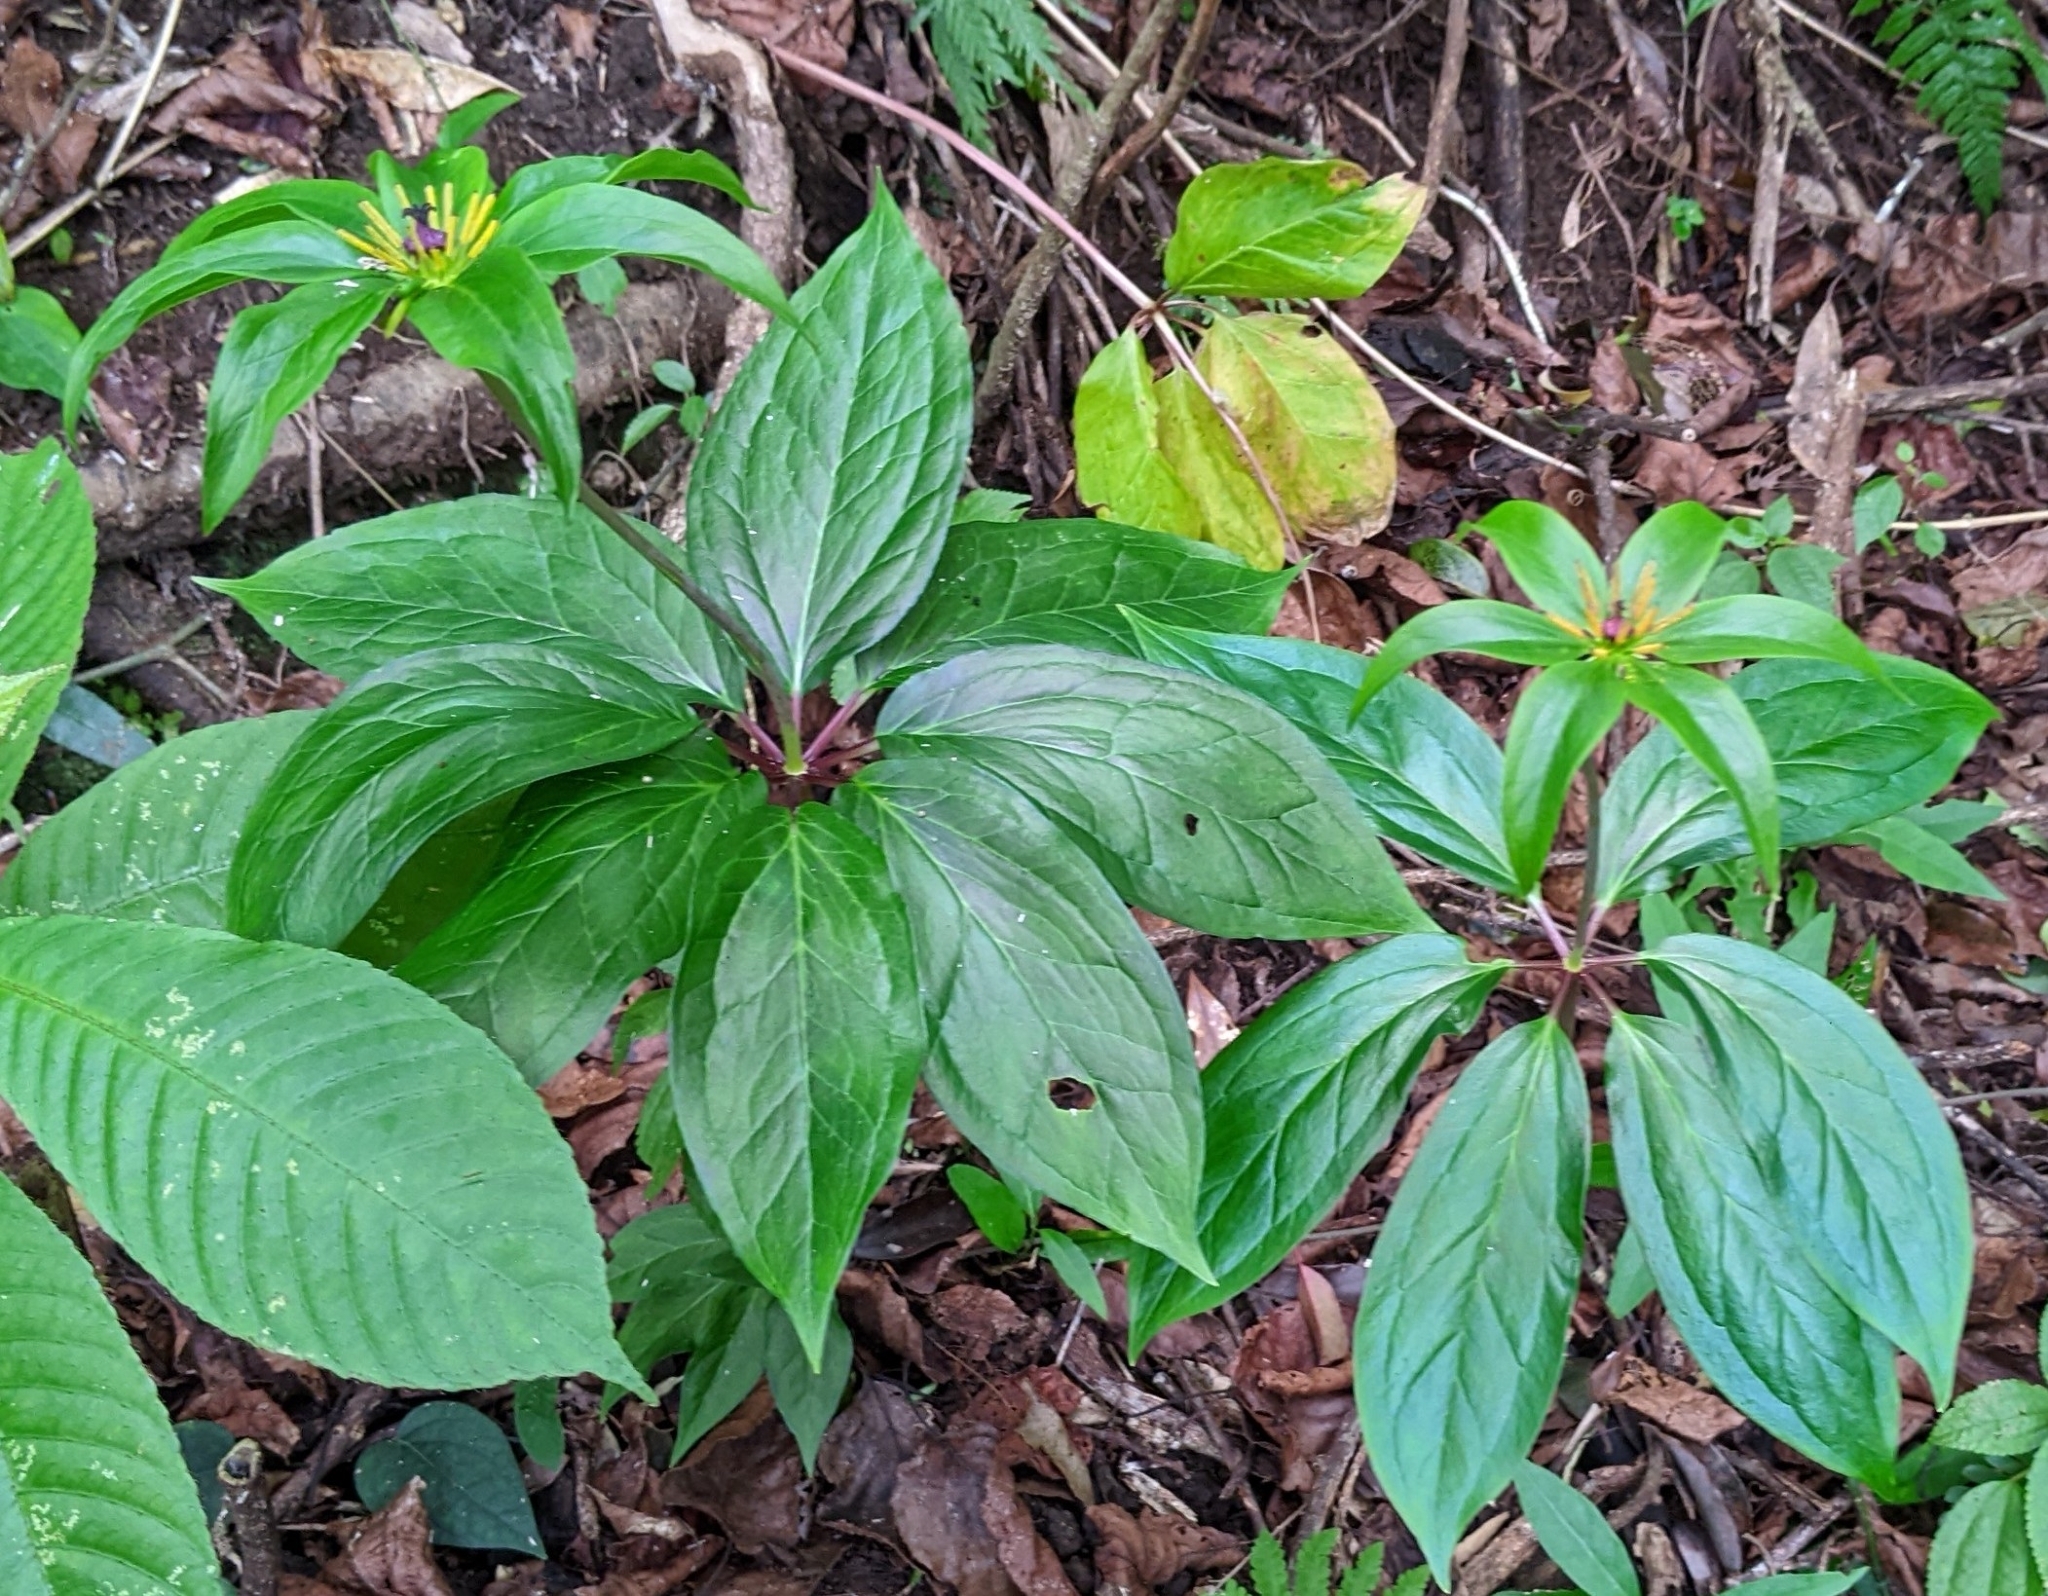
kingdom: Plantae
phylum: Tracheophyta
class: Liliopsida
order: Liliales
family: Melanthiaceae
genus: Paris
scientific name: Paris polyphylla
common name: Love apple
